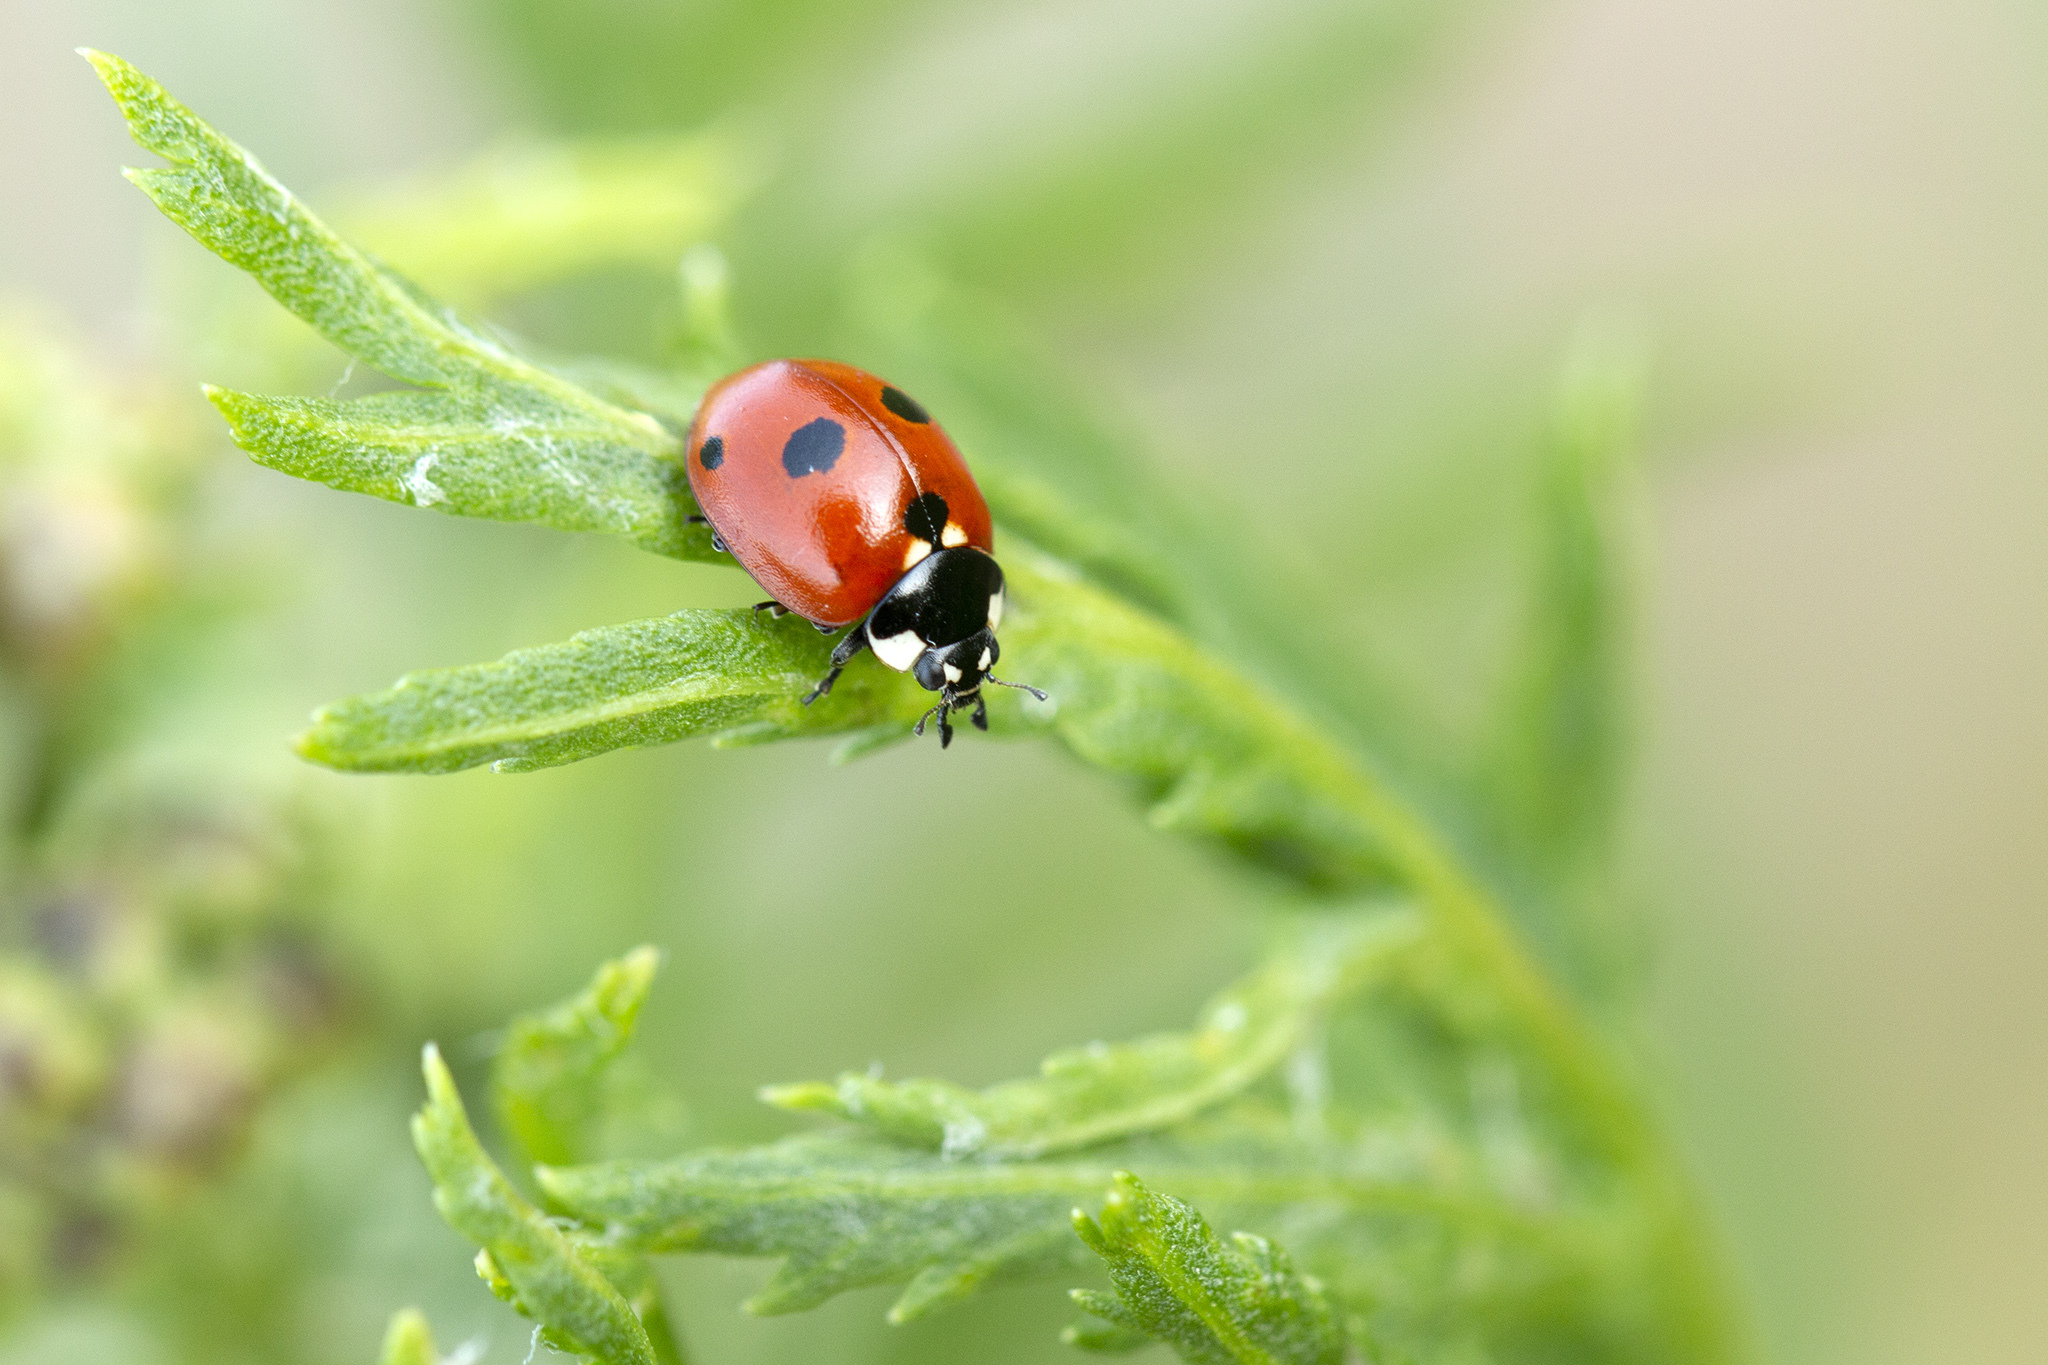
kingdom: Animalia
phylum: Arthropoda
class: Insecta
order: Coleoptera
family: Coccinellidae
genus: Coccinella
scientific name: Coccinella quinquepunctata
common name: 5-spot ladybird
